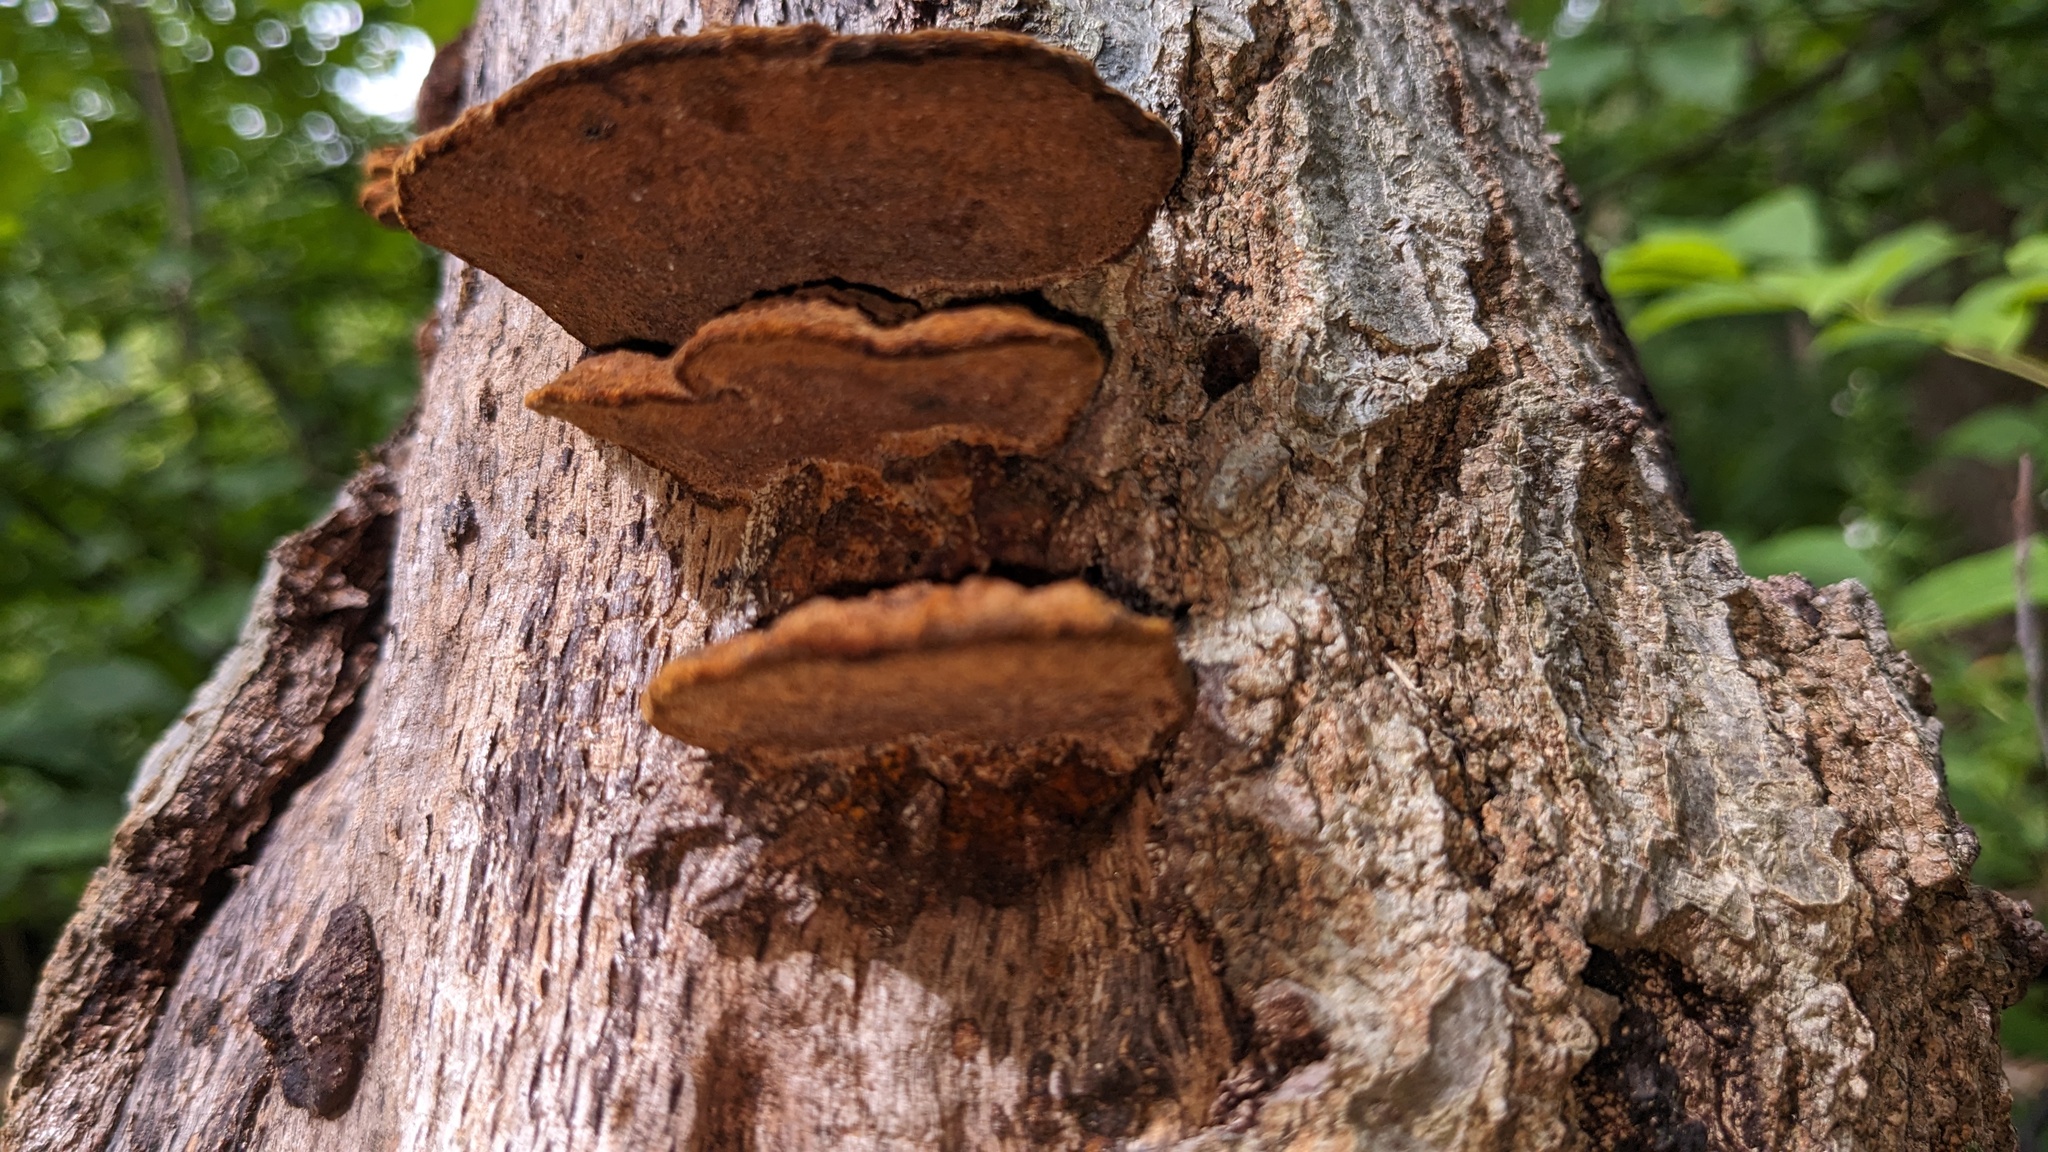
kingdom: Fungi
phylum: Basidiomycota
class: Agaricomycetes
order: Hymenochaetales
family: Hymenochaetaceae
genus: Phellinus
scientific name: Phellinus gilvus
